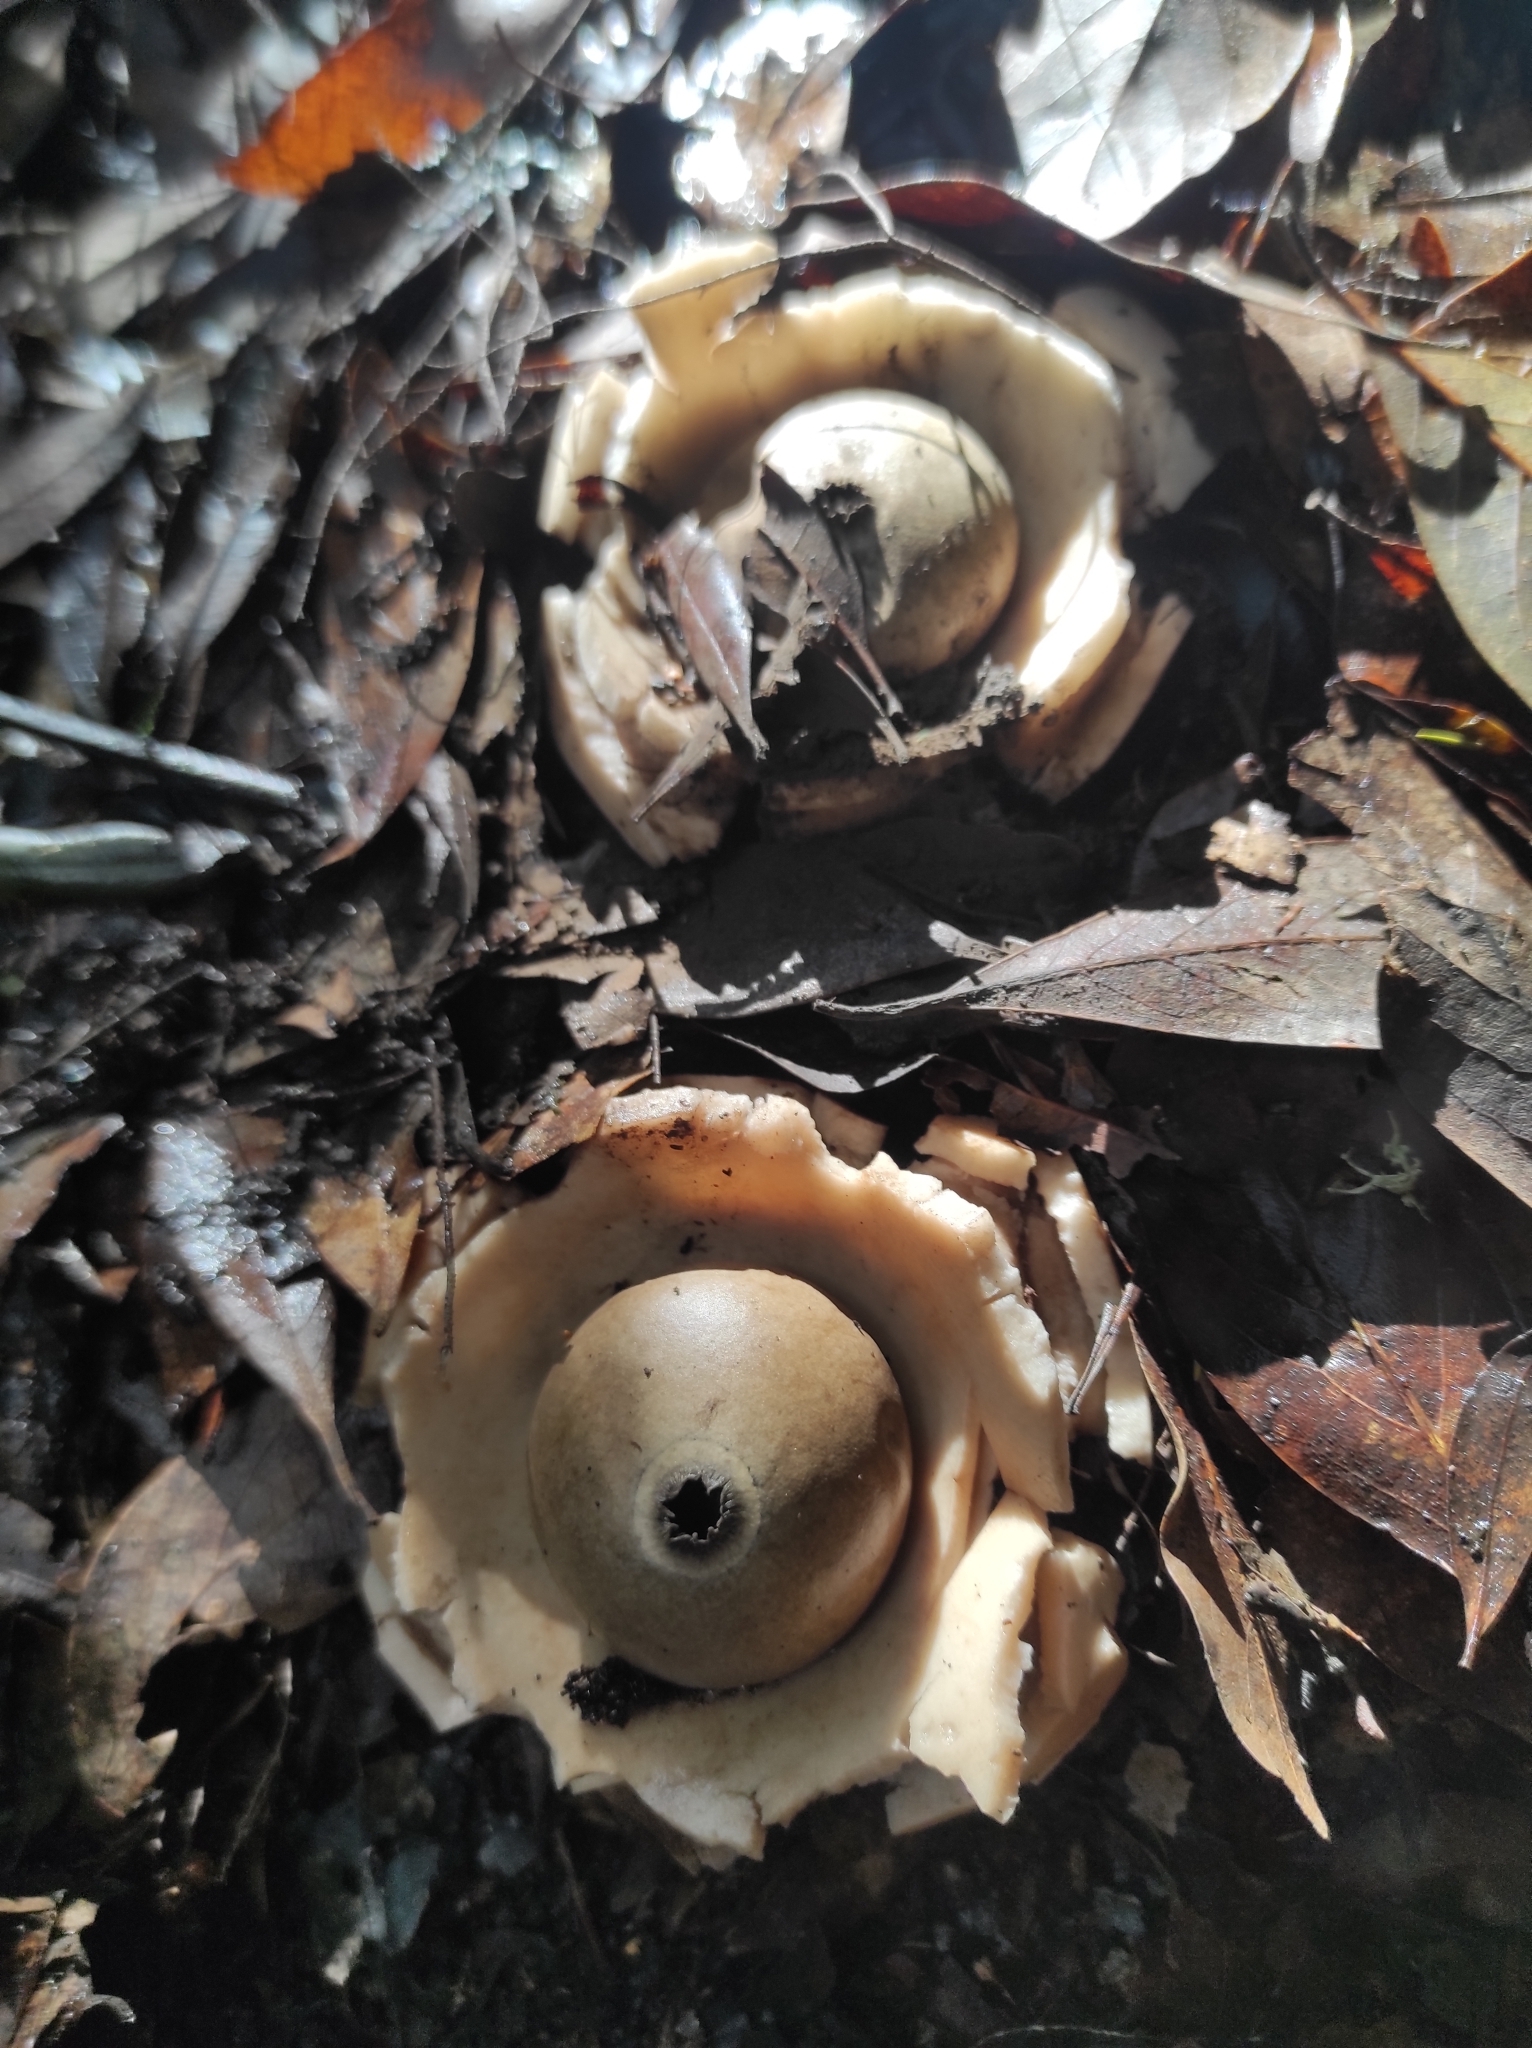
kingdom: Fungi
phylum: Basidiomycota
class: Agaricomycetes
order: Geastrales
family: Geastraceae
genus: Geastrum
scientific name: Geastrum triplex
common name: Collared earthstar
